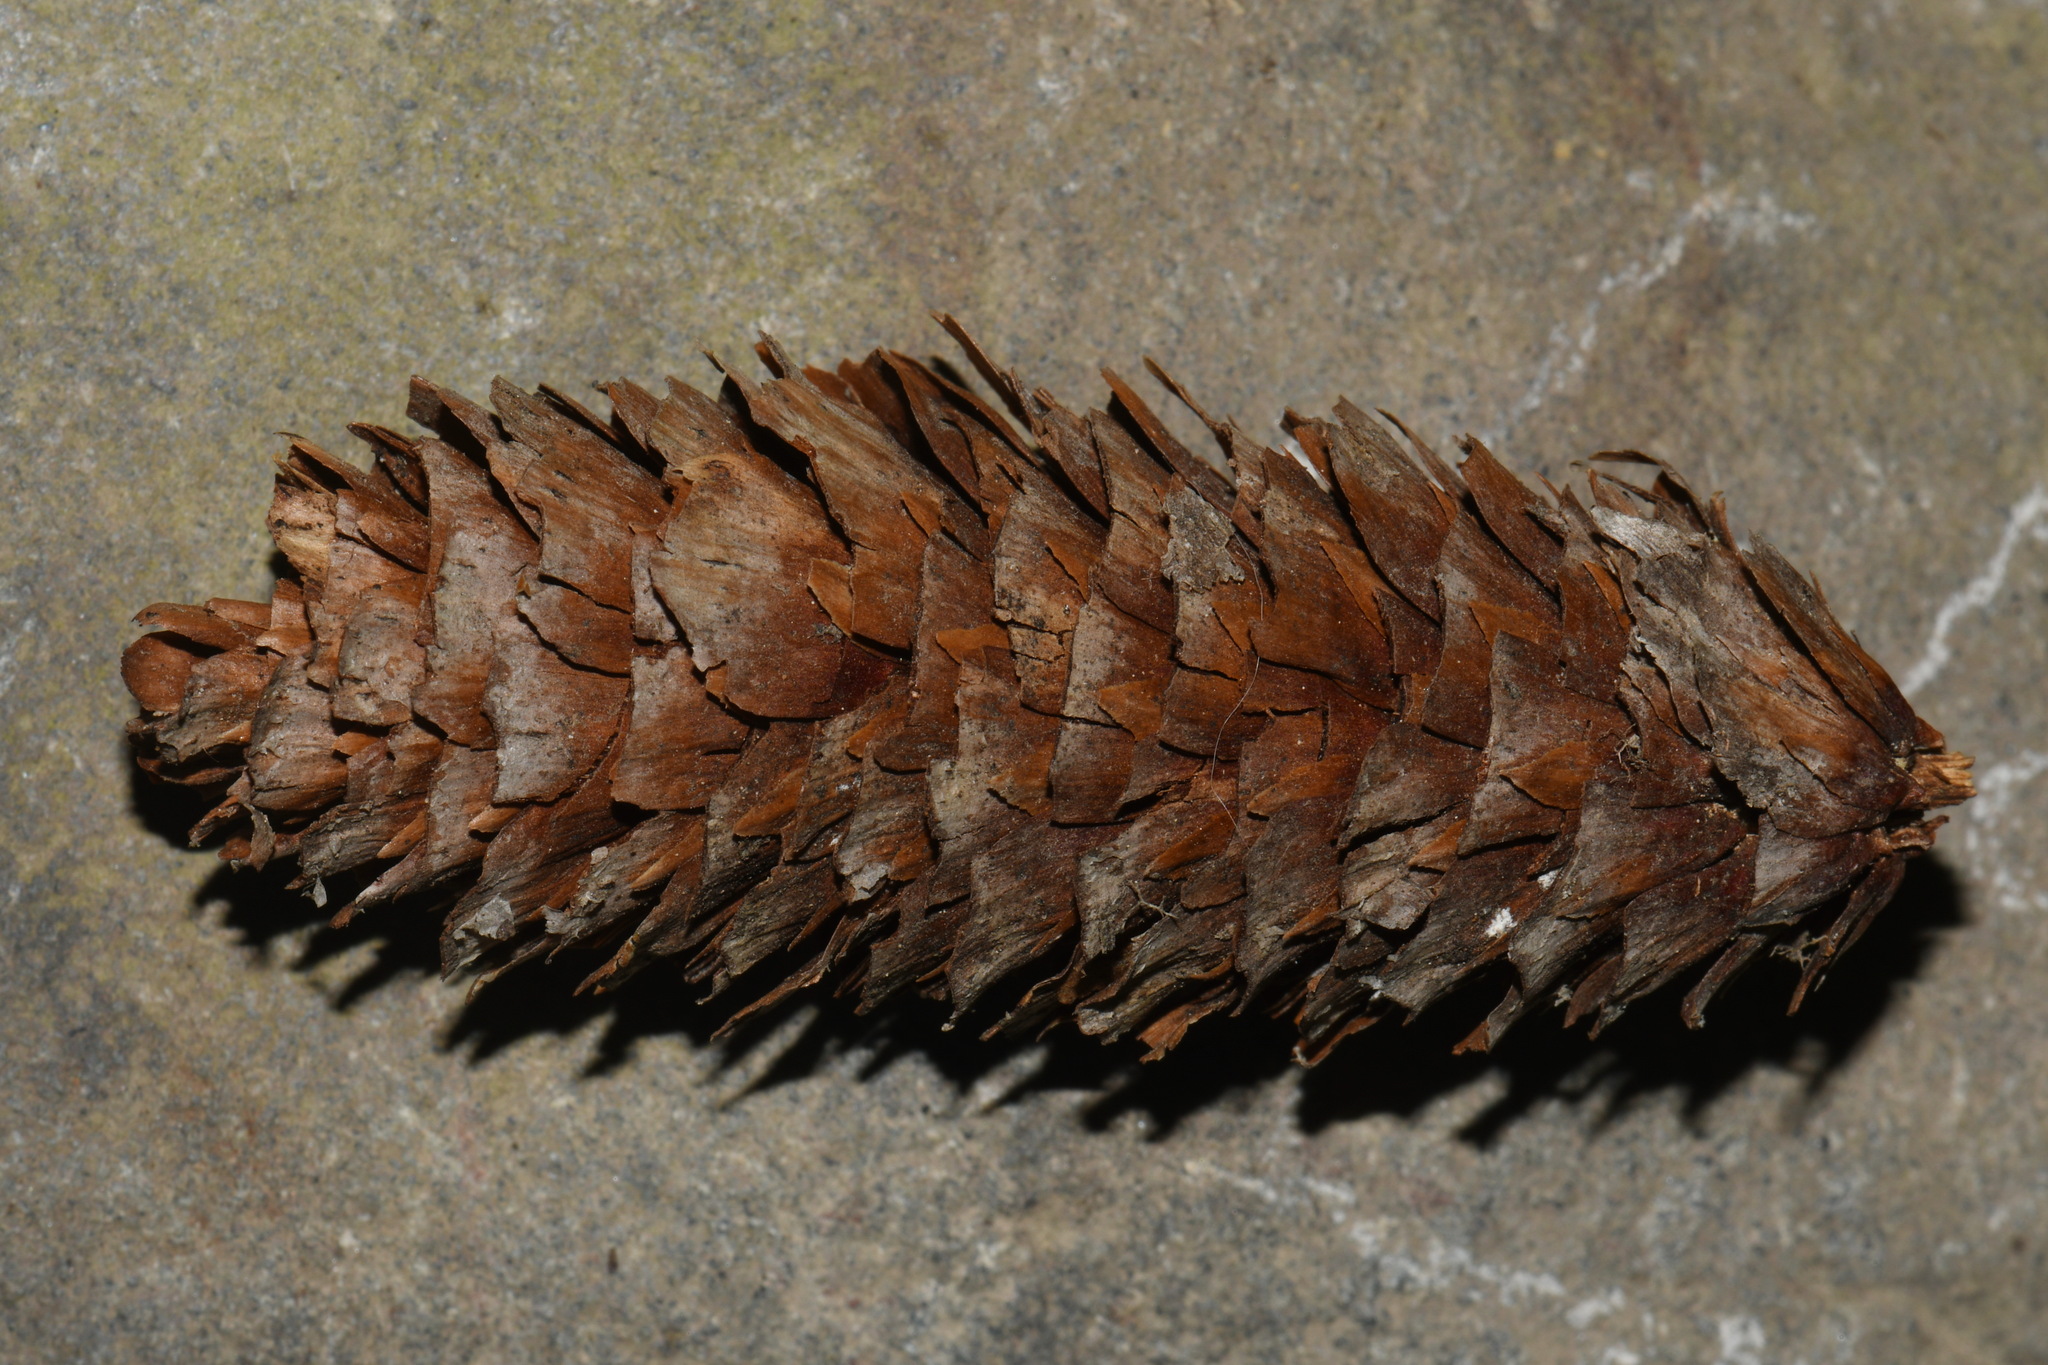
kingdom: Plantae
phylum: Tracheophyta
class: Pinopsida
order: Pinales
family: Pinaceae
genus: Picea
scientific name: Picea sitchensis
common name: Sitka spruce
